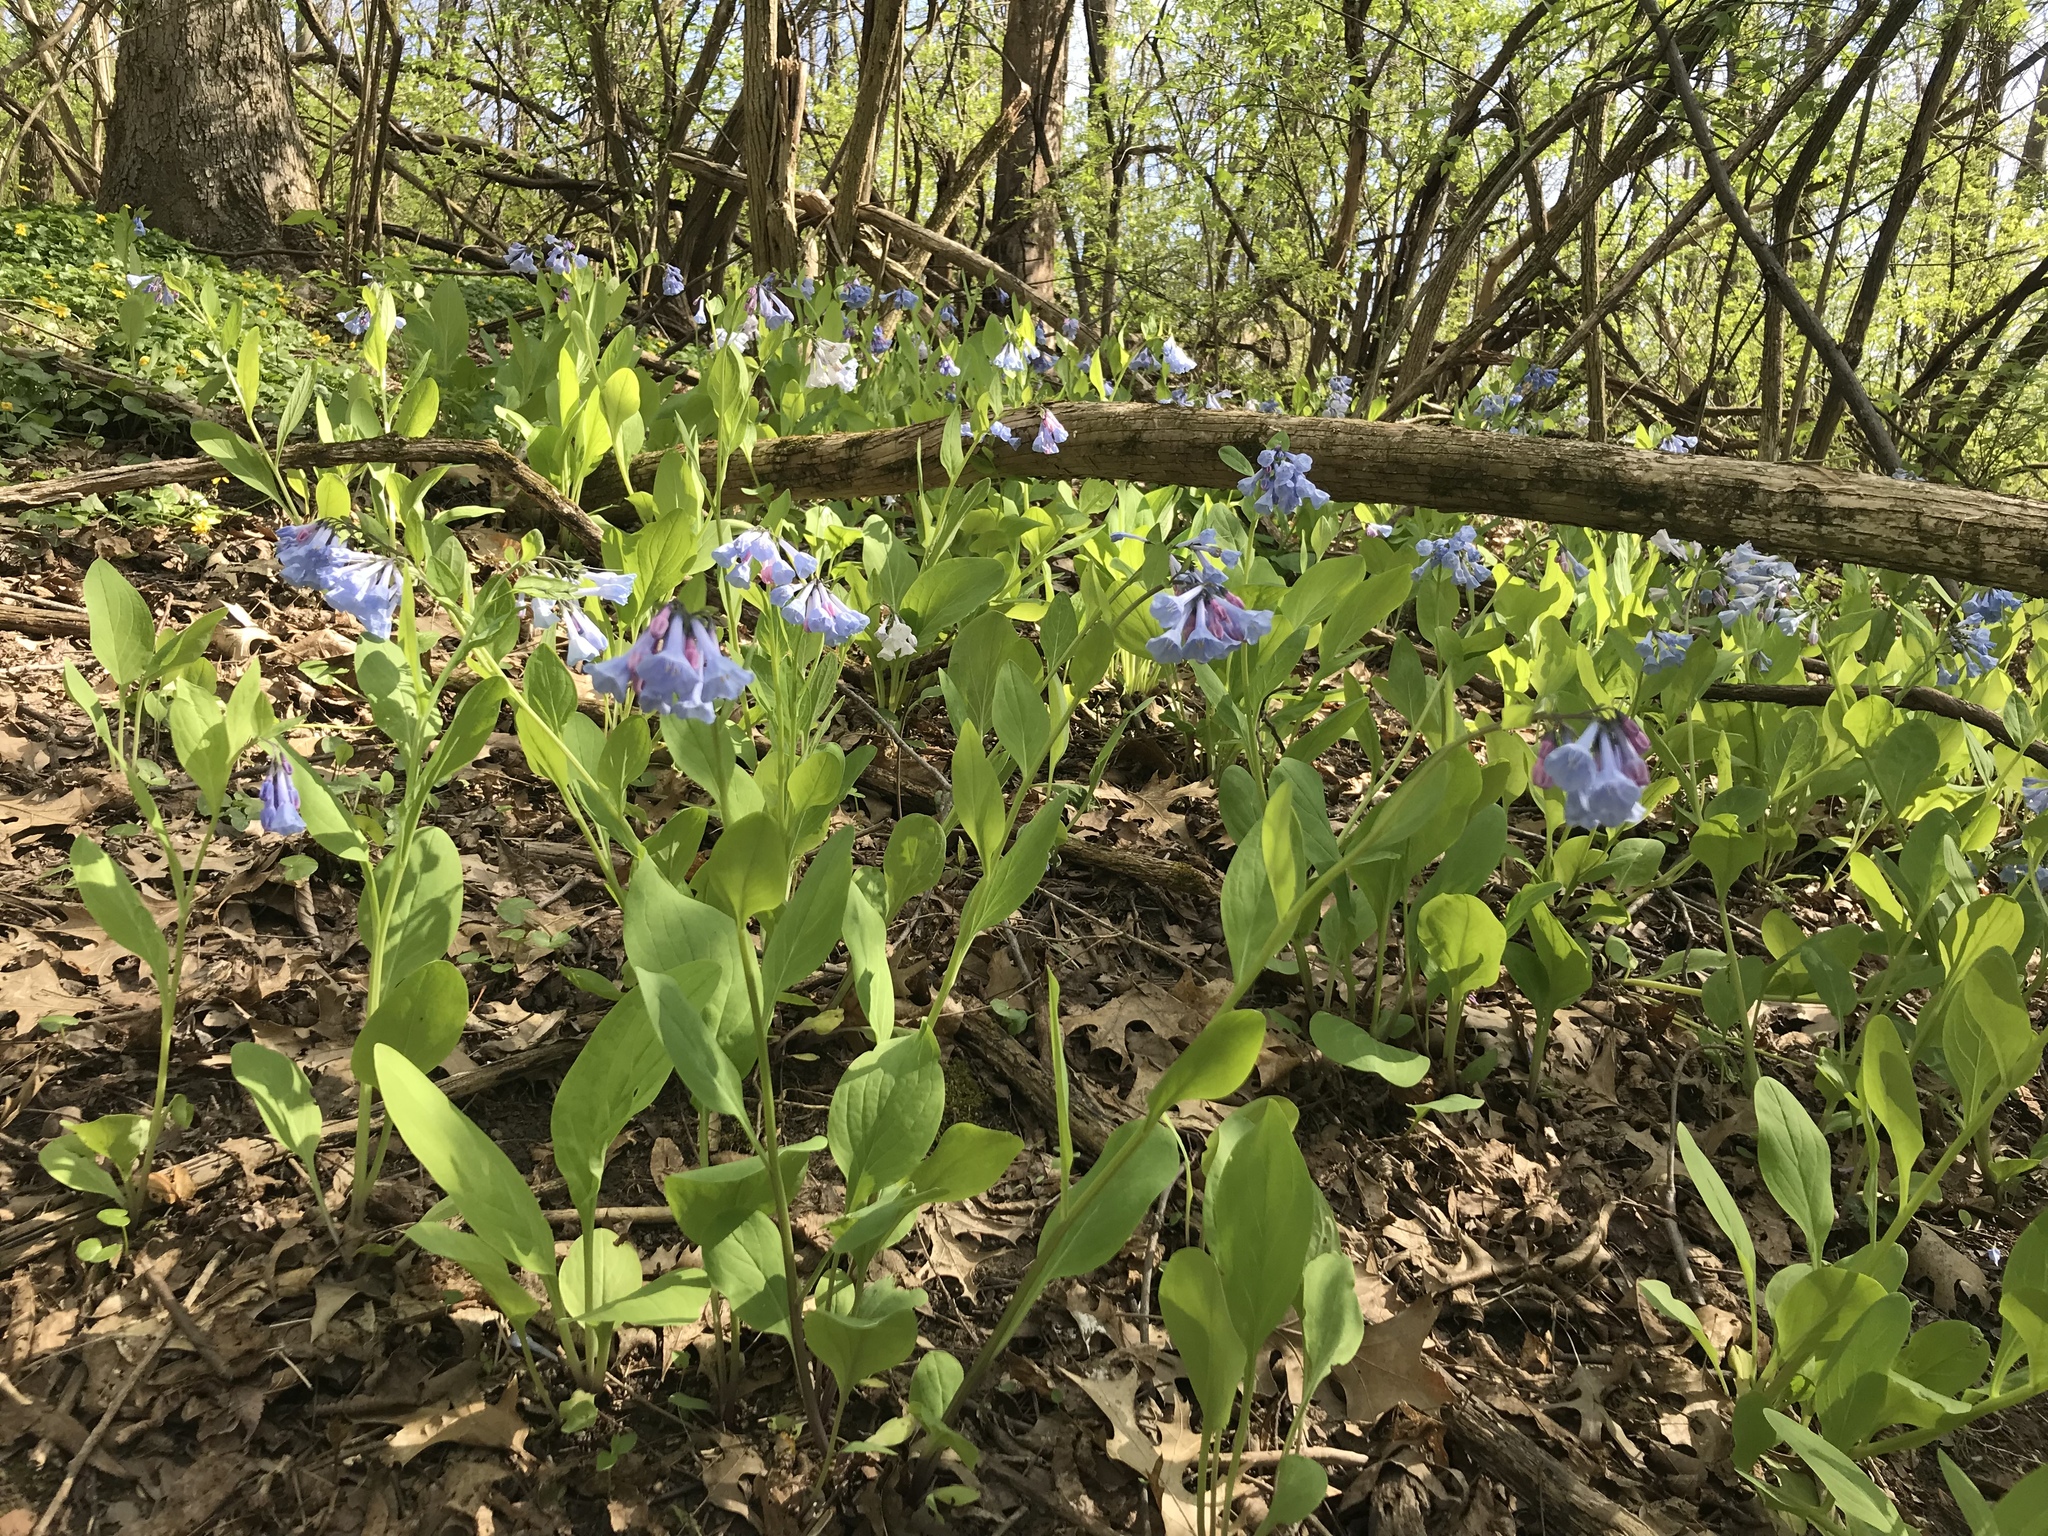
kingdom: Plantae
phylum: Tracheophyta
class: Magnoliopsida
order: Boraginales
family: Boraginaceae
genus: Mertensia
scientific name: Mertensia virginica
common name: Virginia bluebells
